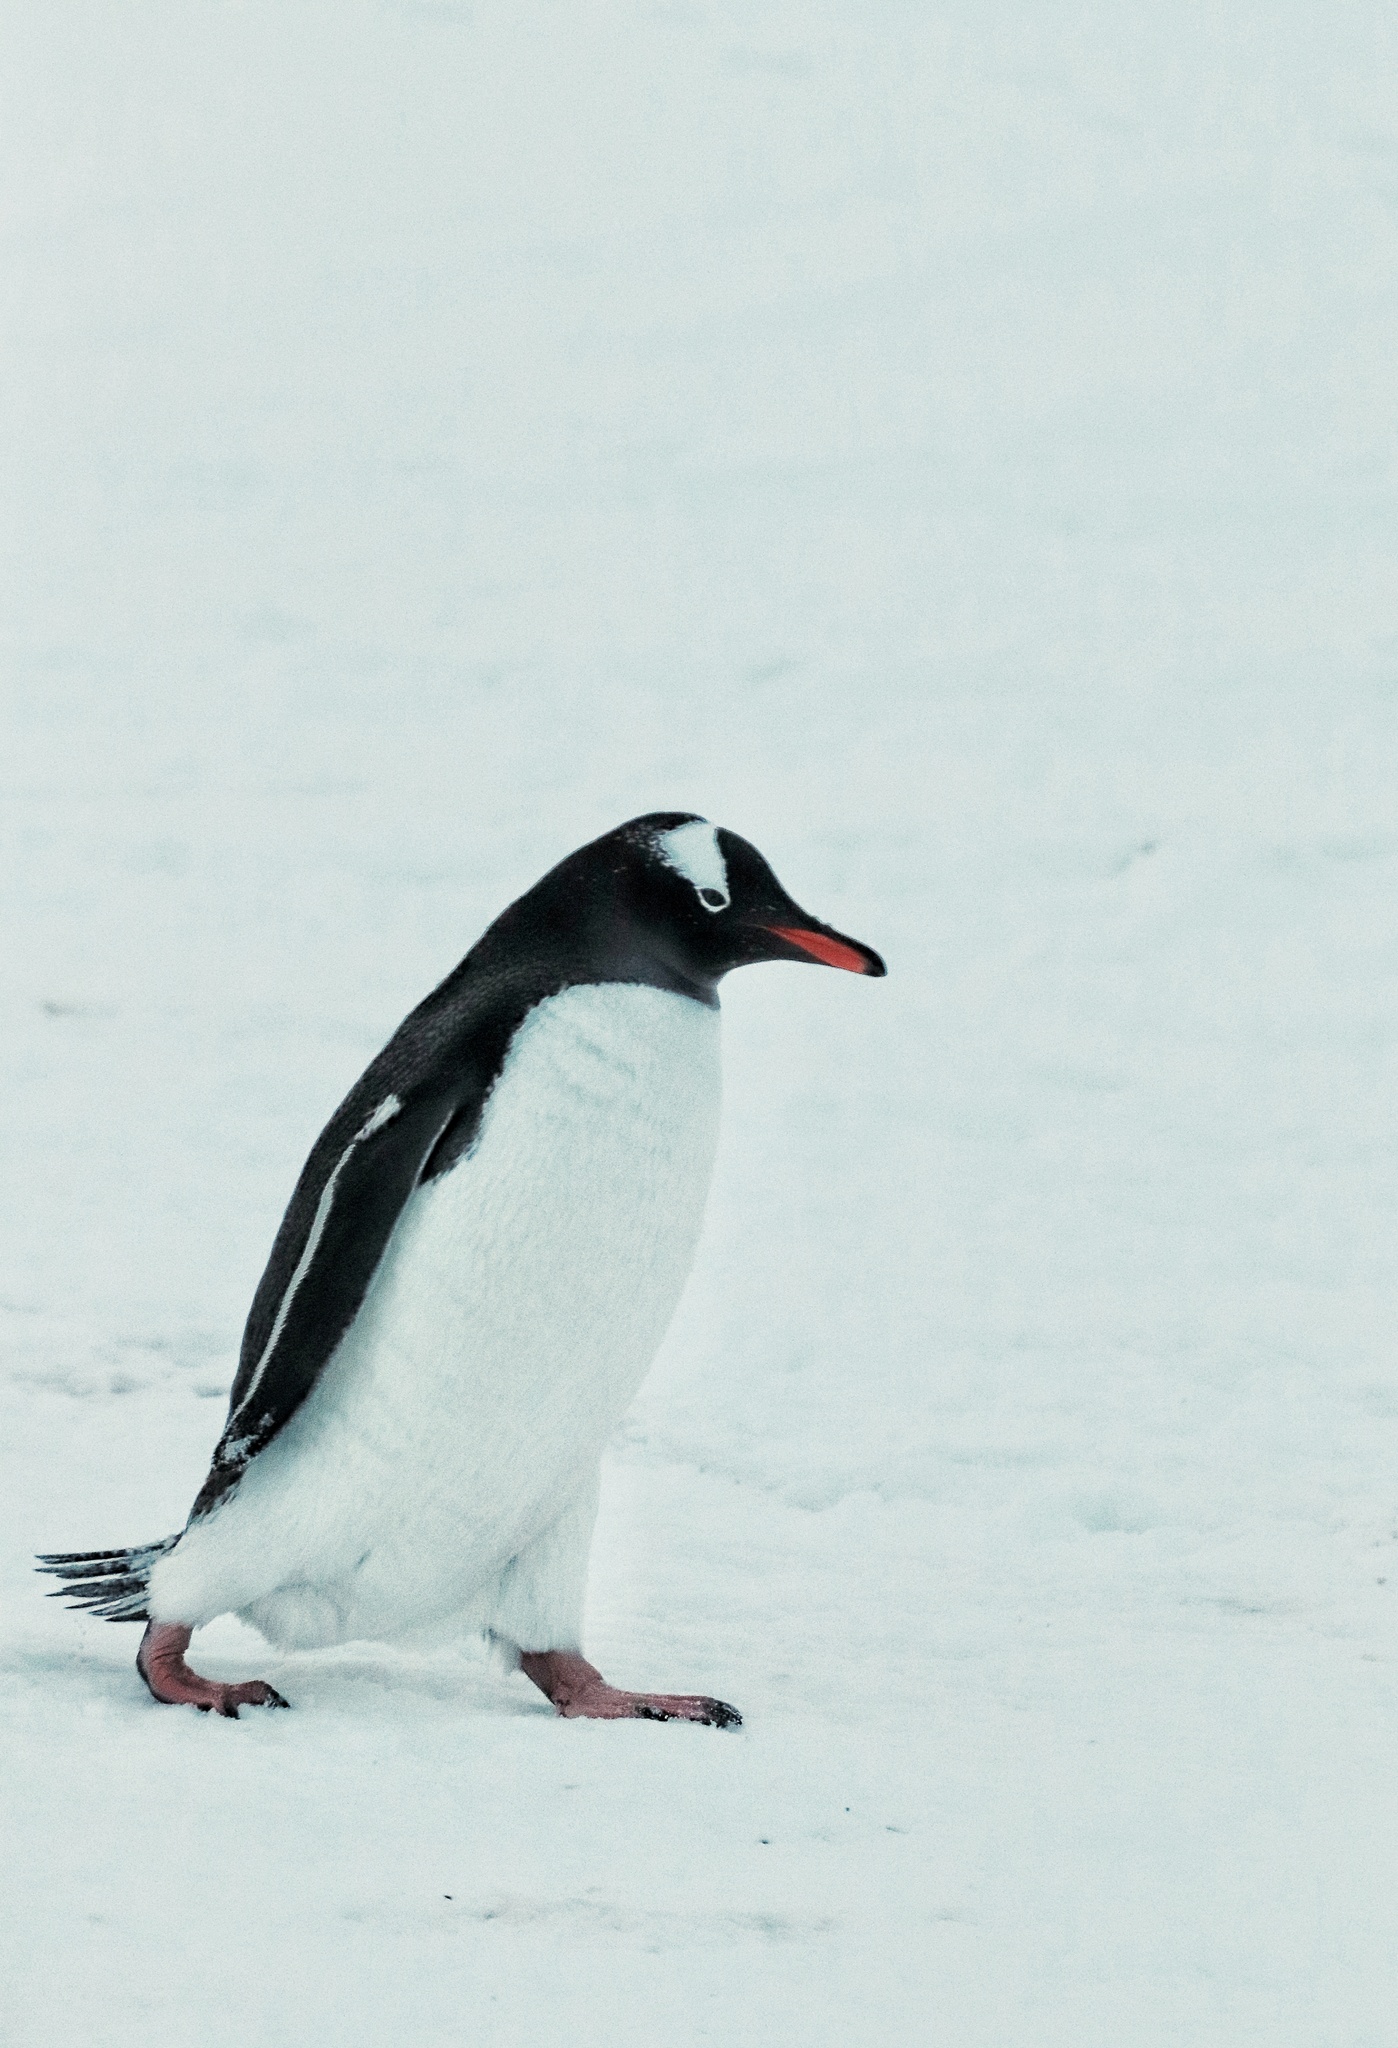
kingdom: Animalia
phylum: Chordata
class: Aves
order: Sphenisciformes
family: Spheniscidae
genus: Pygoscelis
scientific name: Pygoscelis papua
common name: Gentoo penguin
